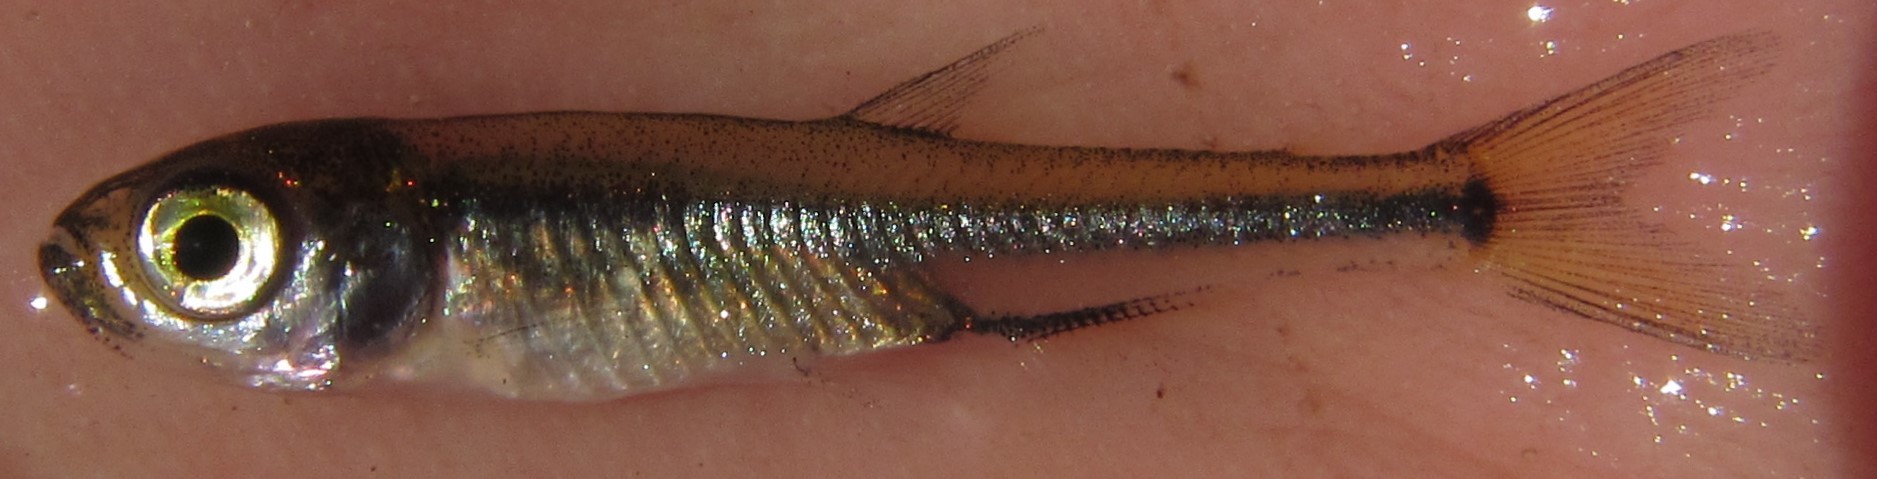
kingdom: Animalia
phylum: Chordata
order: Characiformes
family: Alestidae
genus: Rhabdalestes
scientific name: Rhabdalestes maunensis
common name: Slender robber
